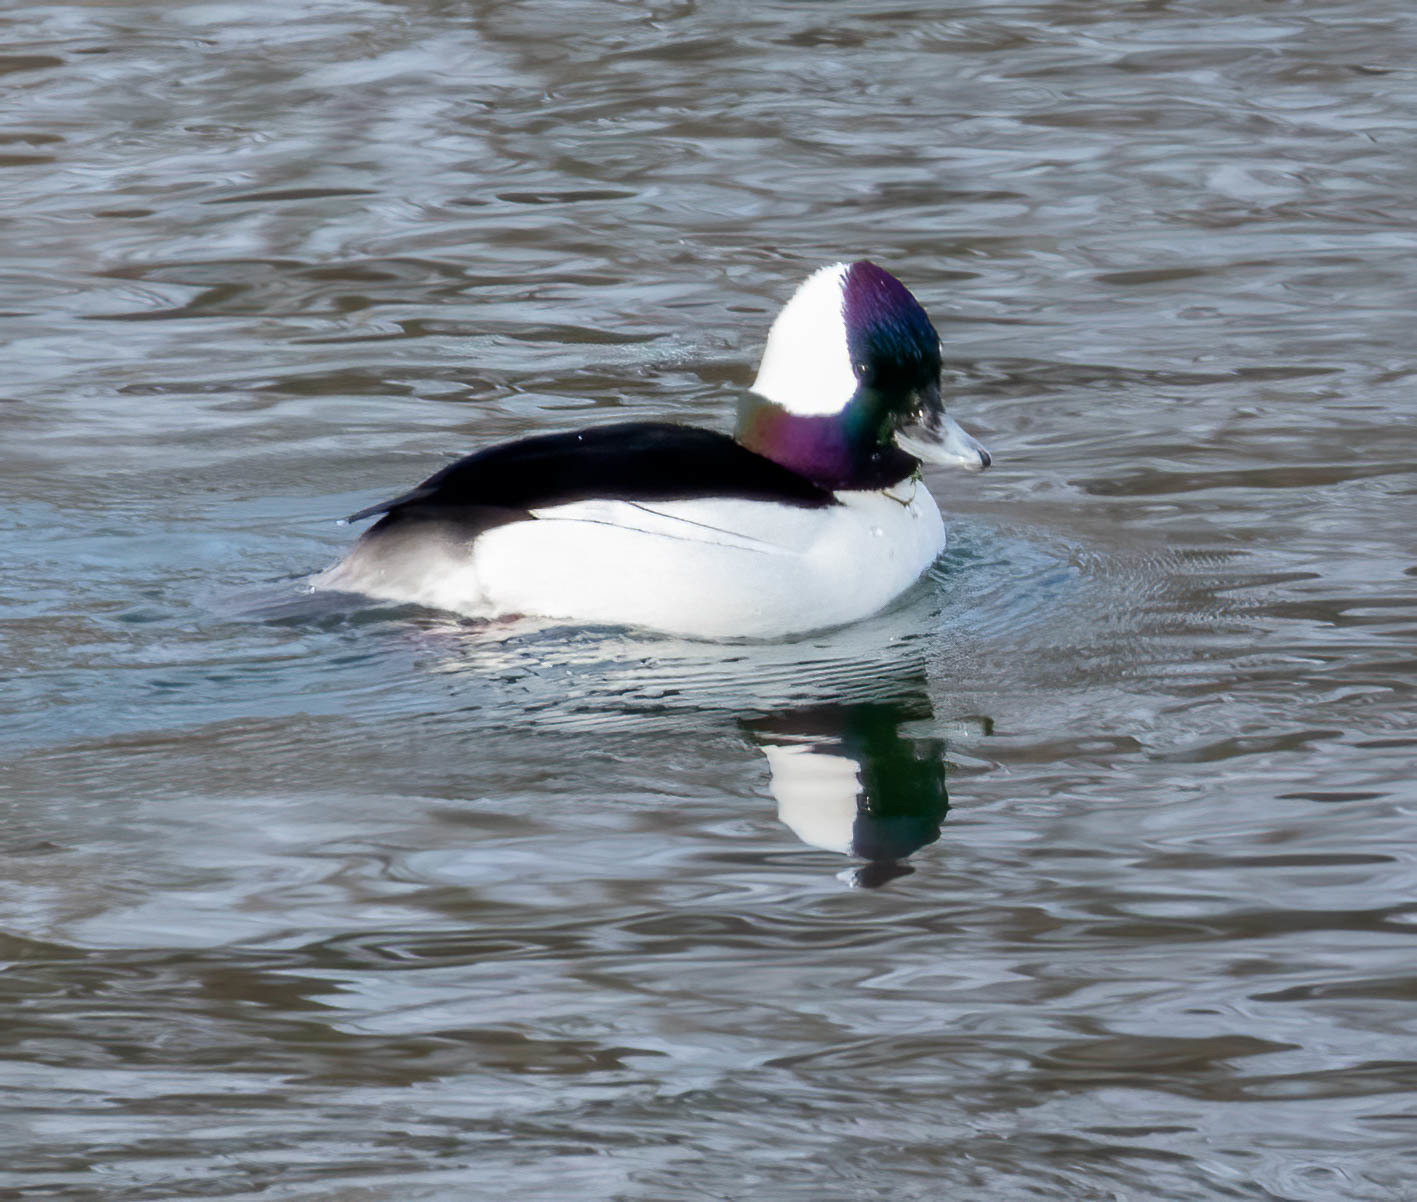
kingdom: Animalia
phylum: Chordata
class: Aves
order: Anseriformes
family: Anatidae
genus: Bucephala
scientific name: Bucephala albeola
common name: Bufflehead
